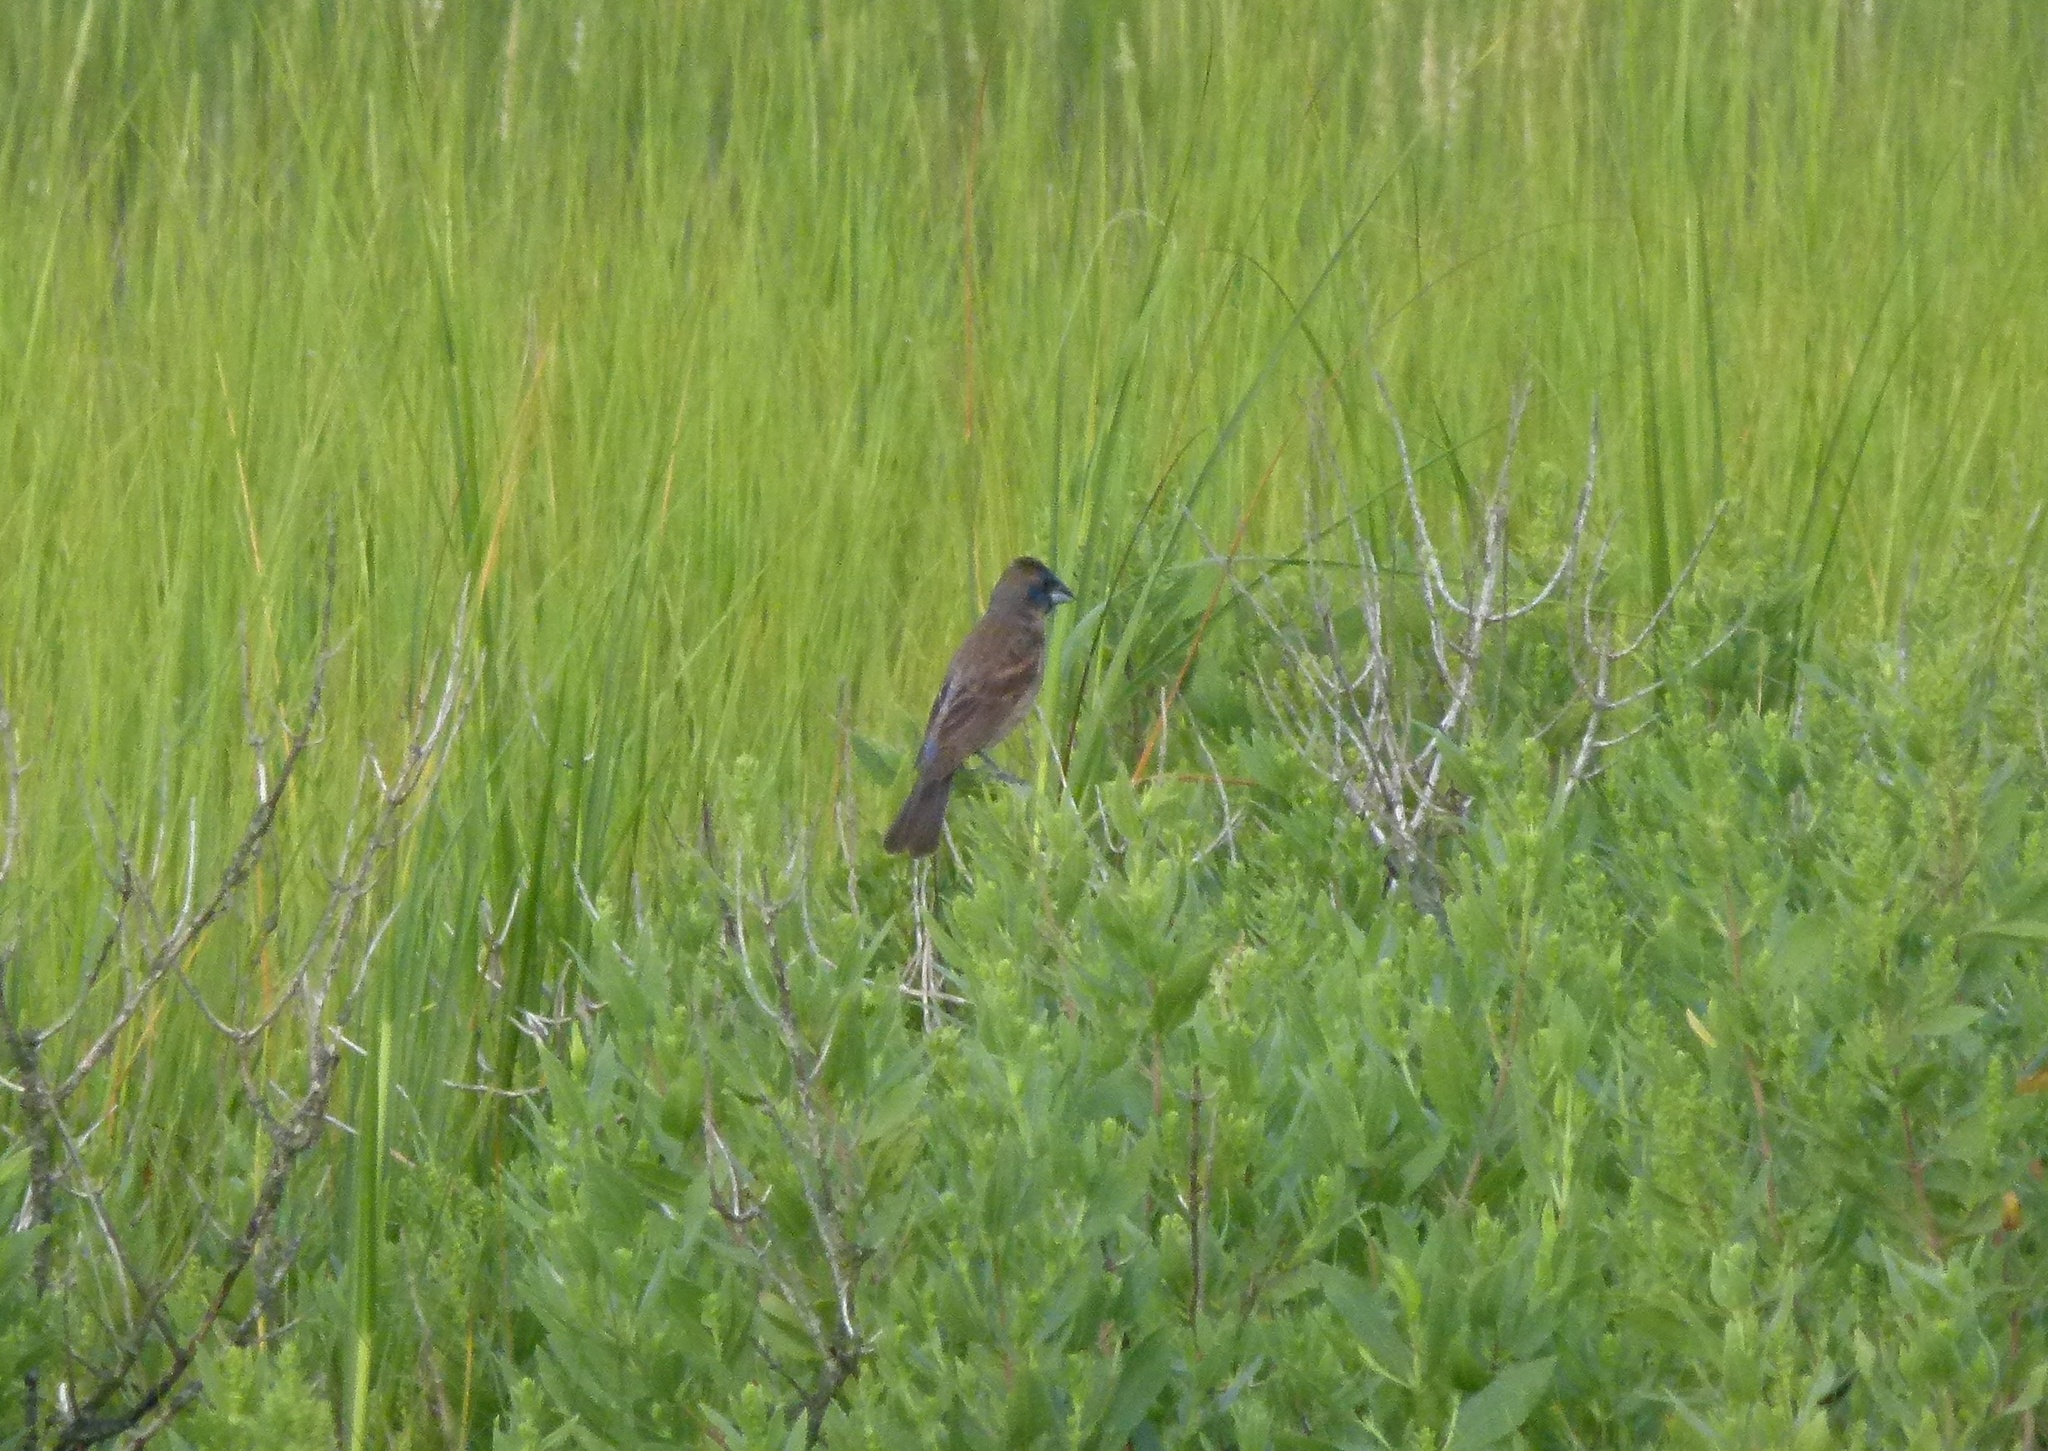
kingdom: Animalia
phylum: Chordata
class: Aves
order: Passeriformes
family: Cardinalidae
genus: Passerina
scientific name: Passerina caerulea
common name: Blue grosbeak
